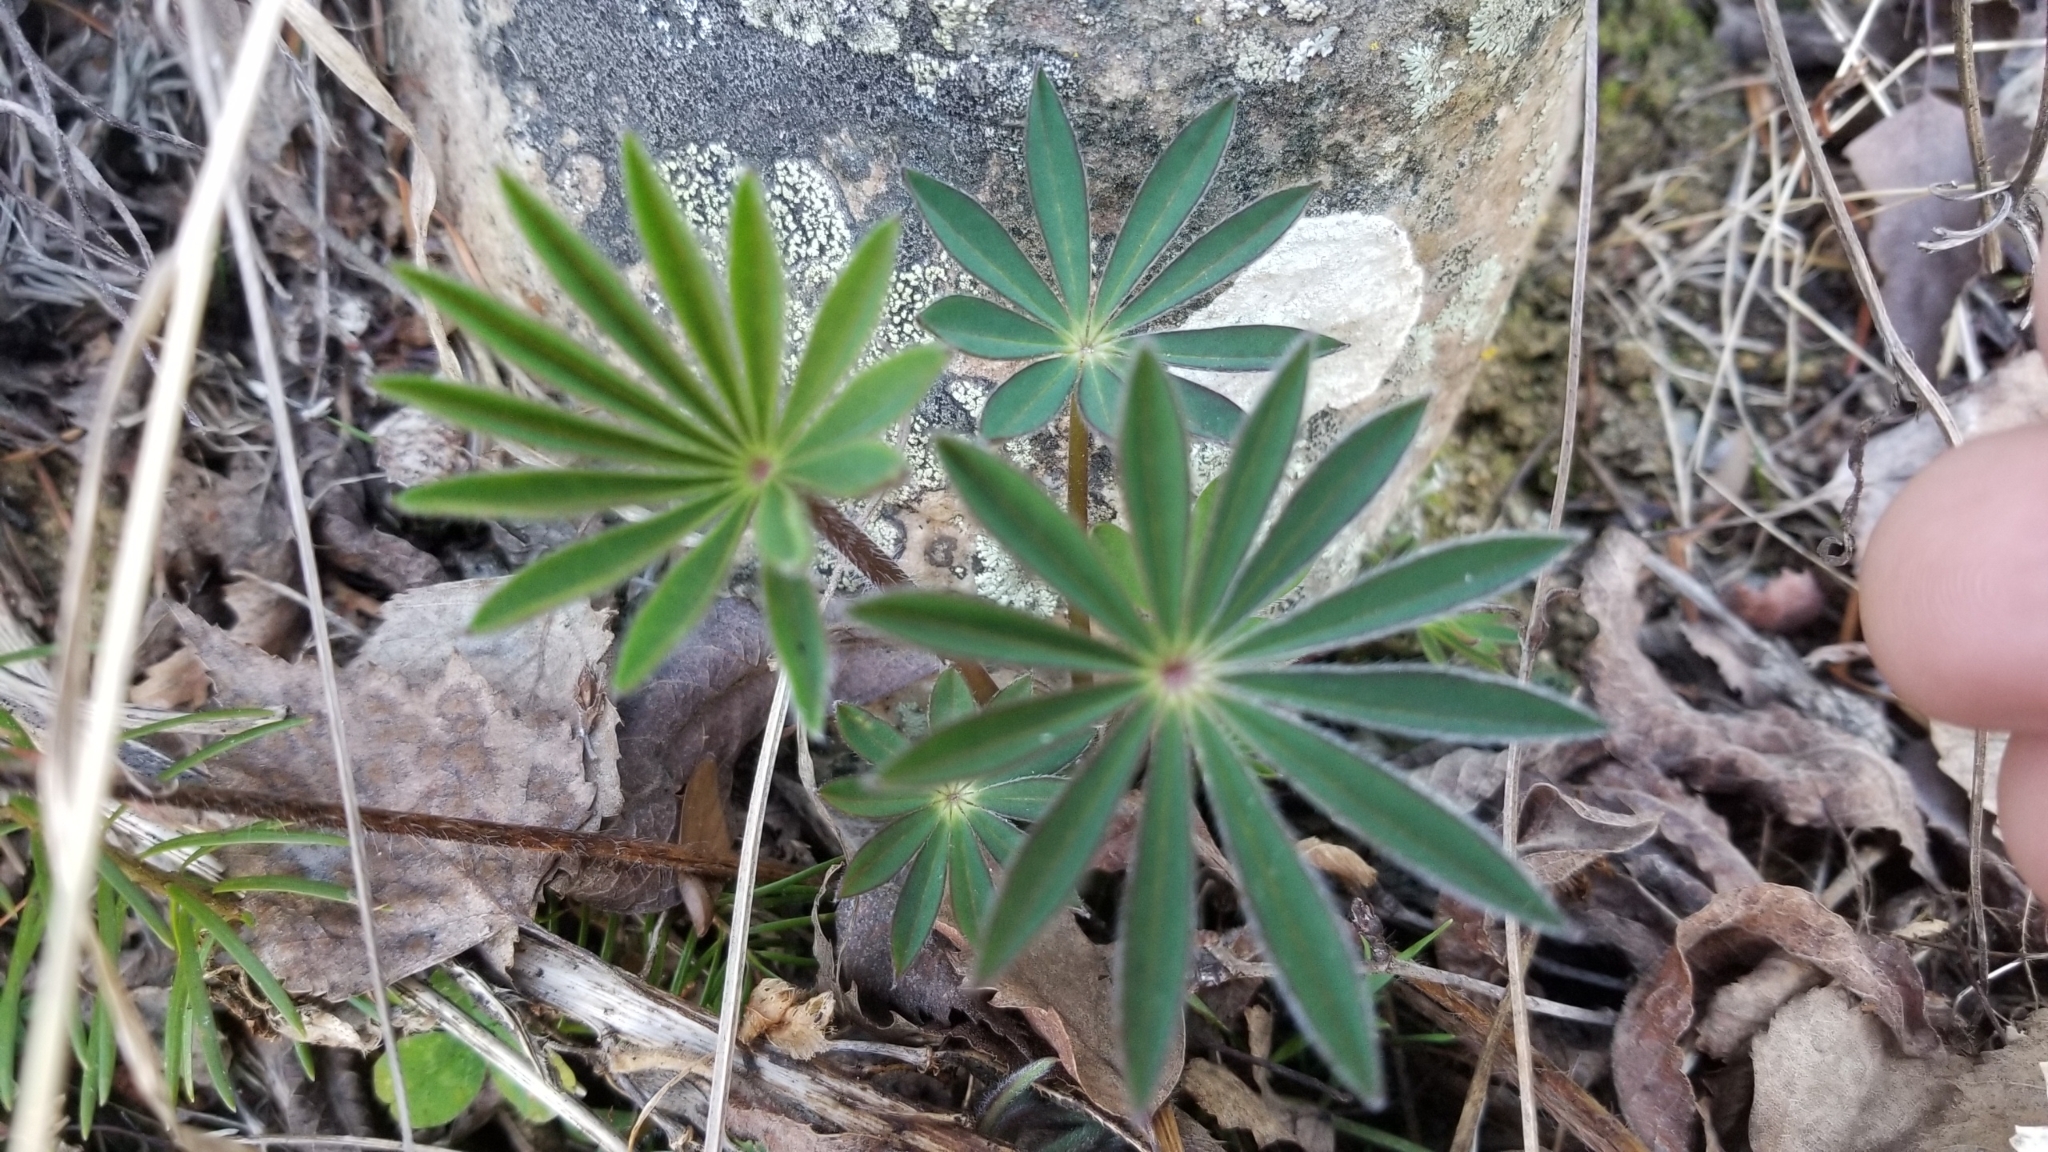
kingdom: Plantae
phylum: Tracheophyta
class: Magnoliopsida
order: Fabales
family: Fabaceae
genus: Lupinus
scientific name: Lupinus polyphyllus
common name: Garden lupin
